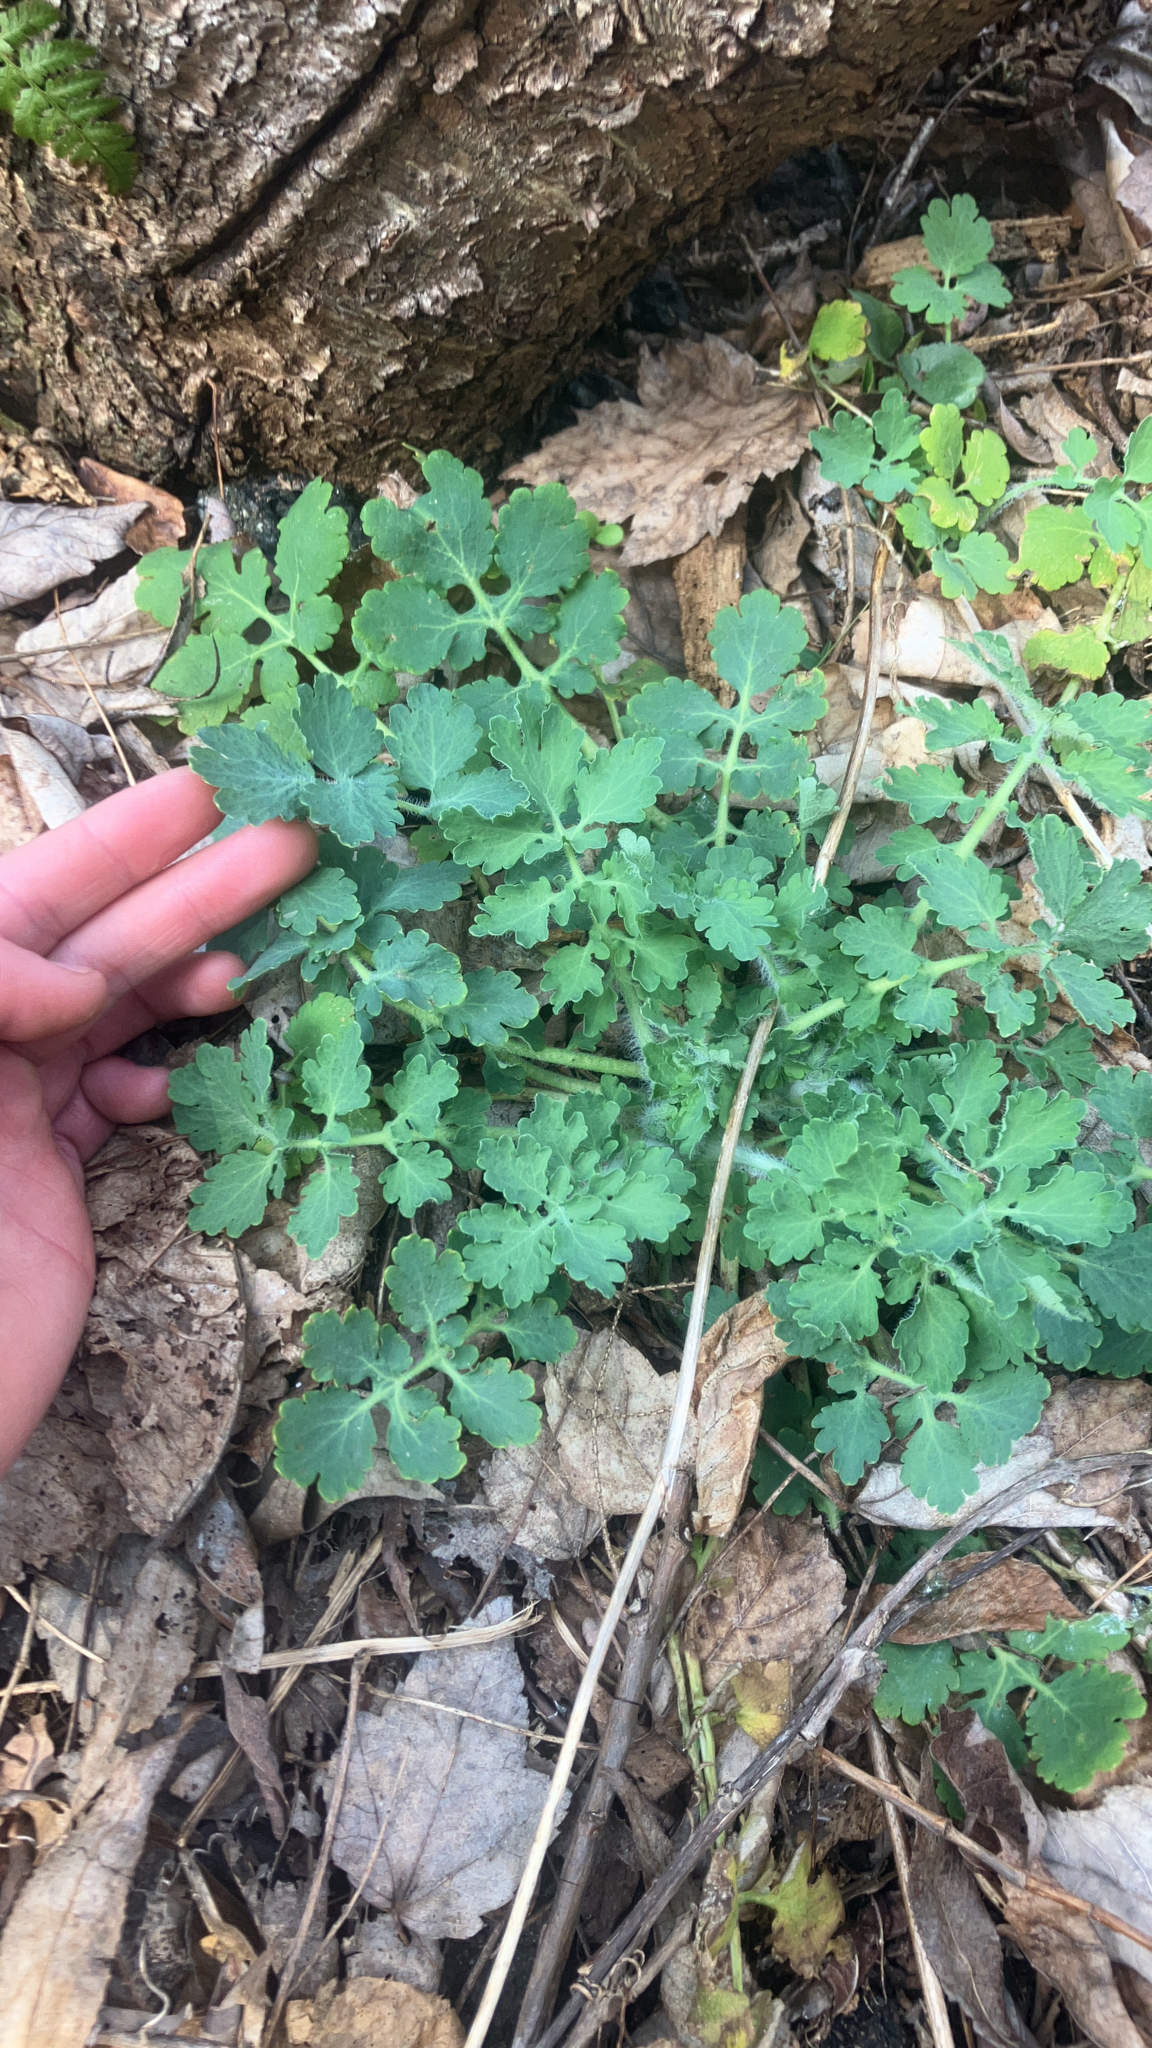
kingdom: Plantae
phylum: Tracheophyta
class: Magnoliopsida
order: Ranunculales
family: Papaveraceae
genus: Chelidonium
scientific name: Chelidonium majus
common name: Greater celandine
